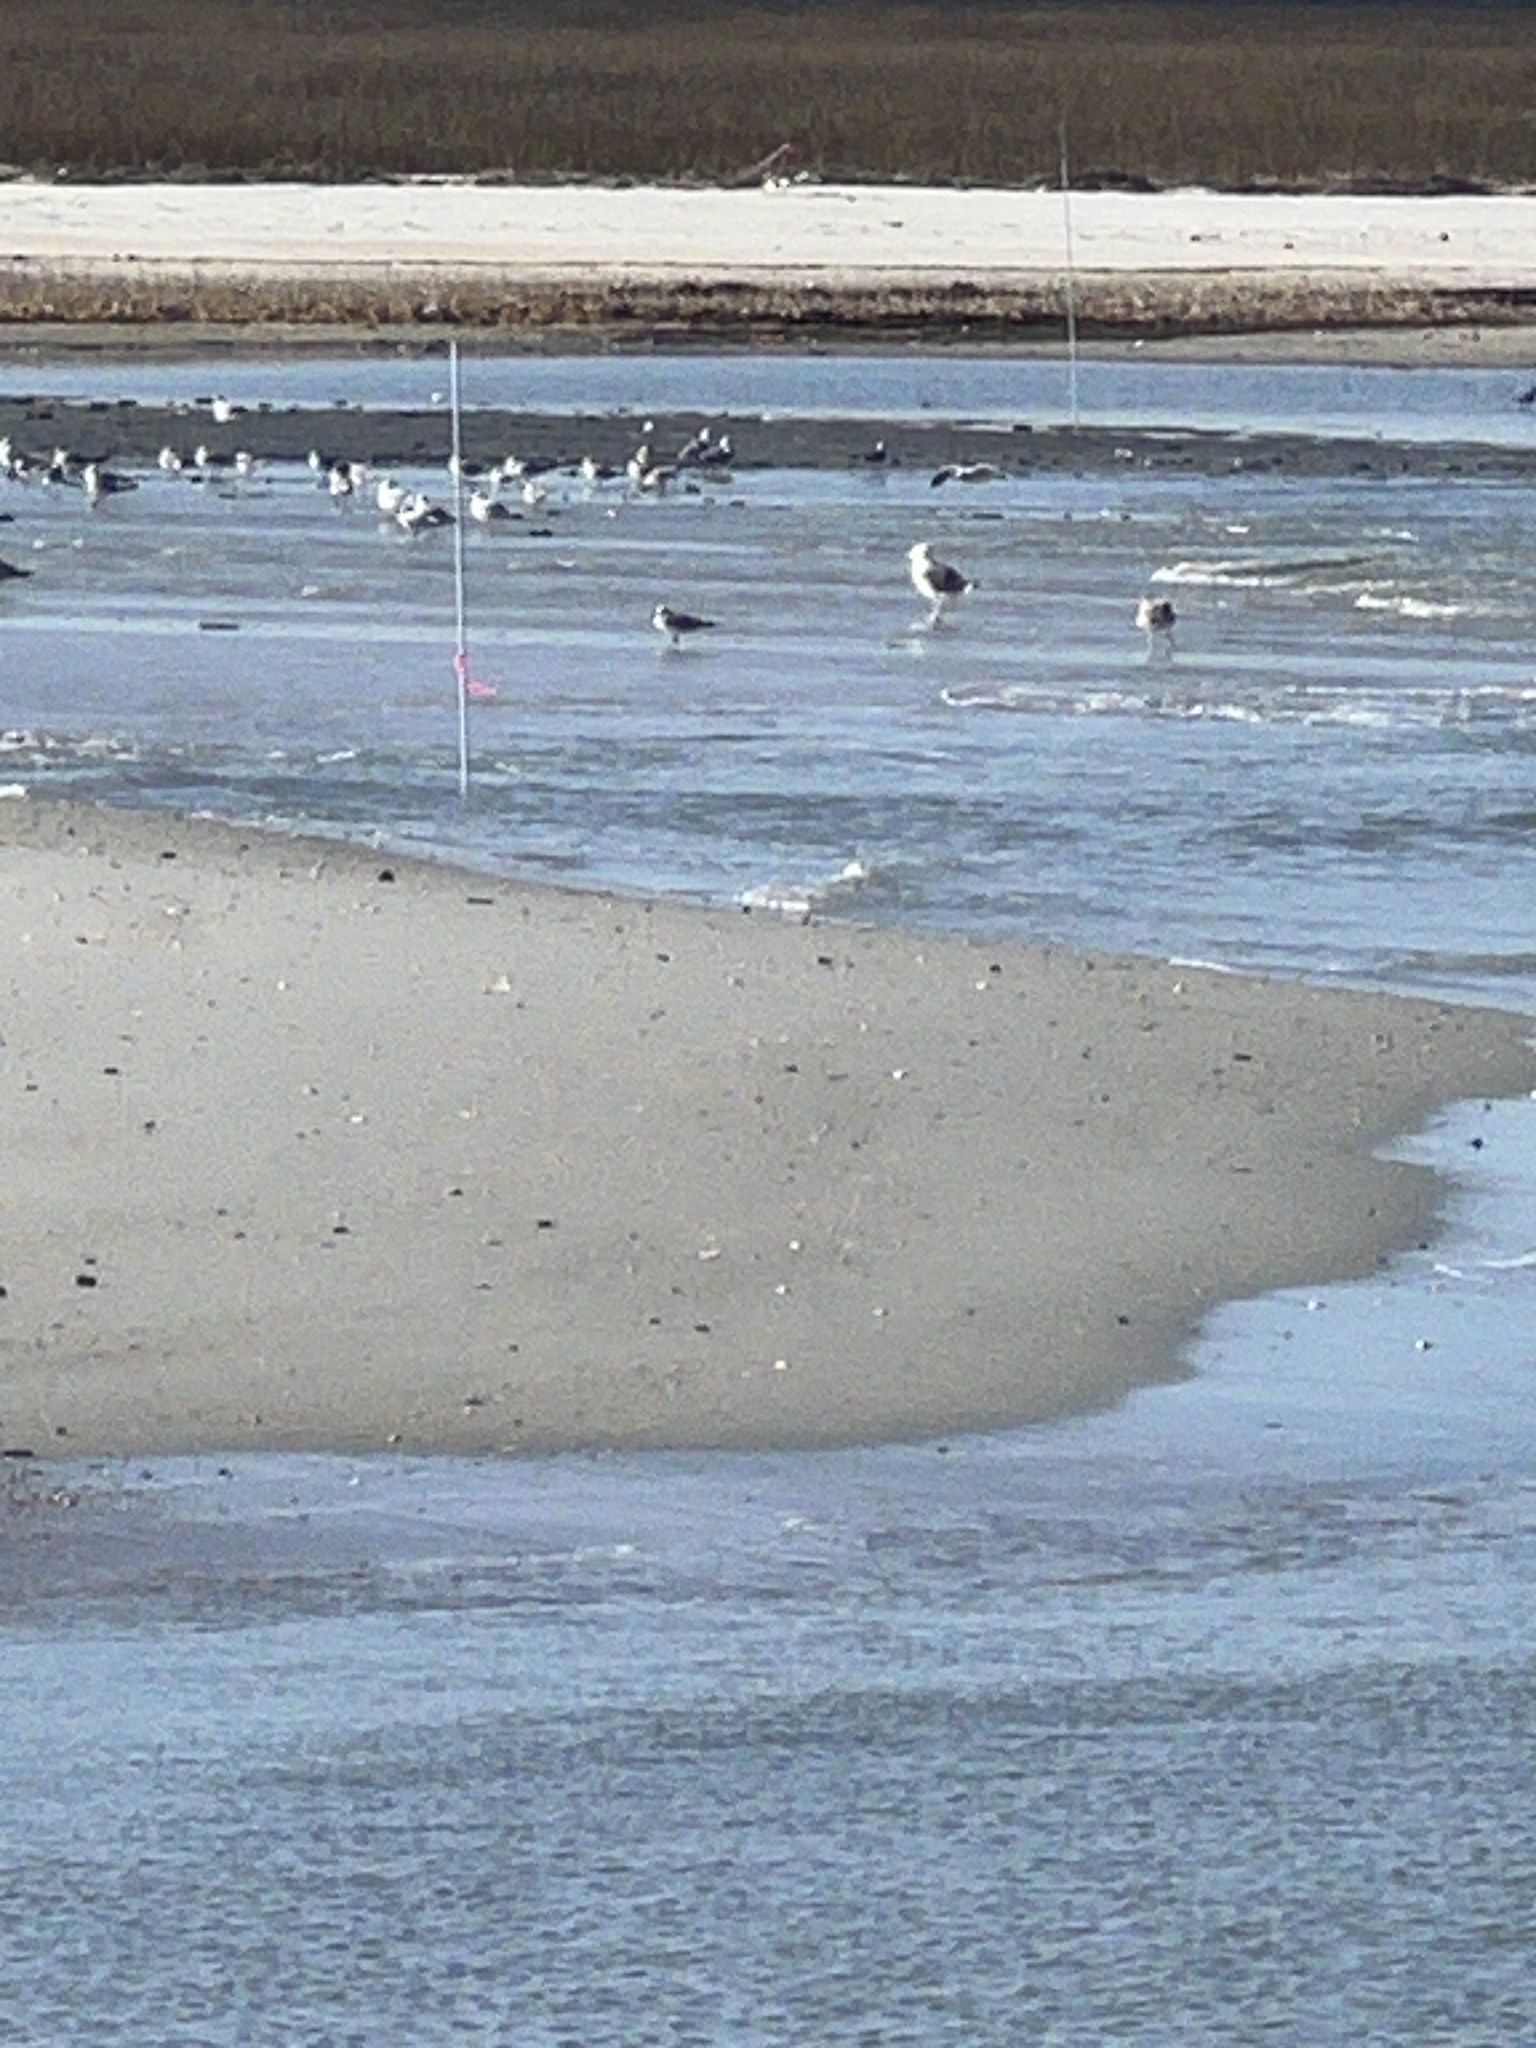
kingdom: Animalia
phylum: Chordata
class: Aves
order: Charadriiformes
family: Laridae
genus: Larus
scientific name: Larus marinus
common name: Great black-backed gull
